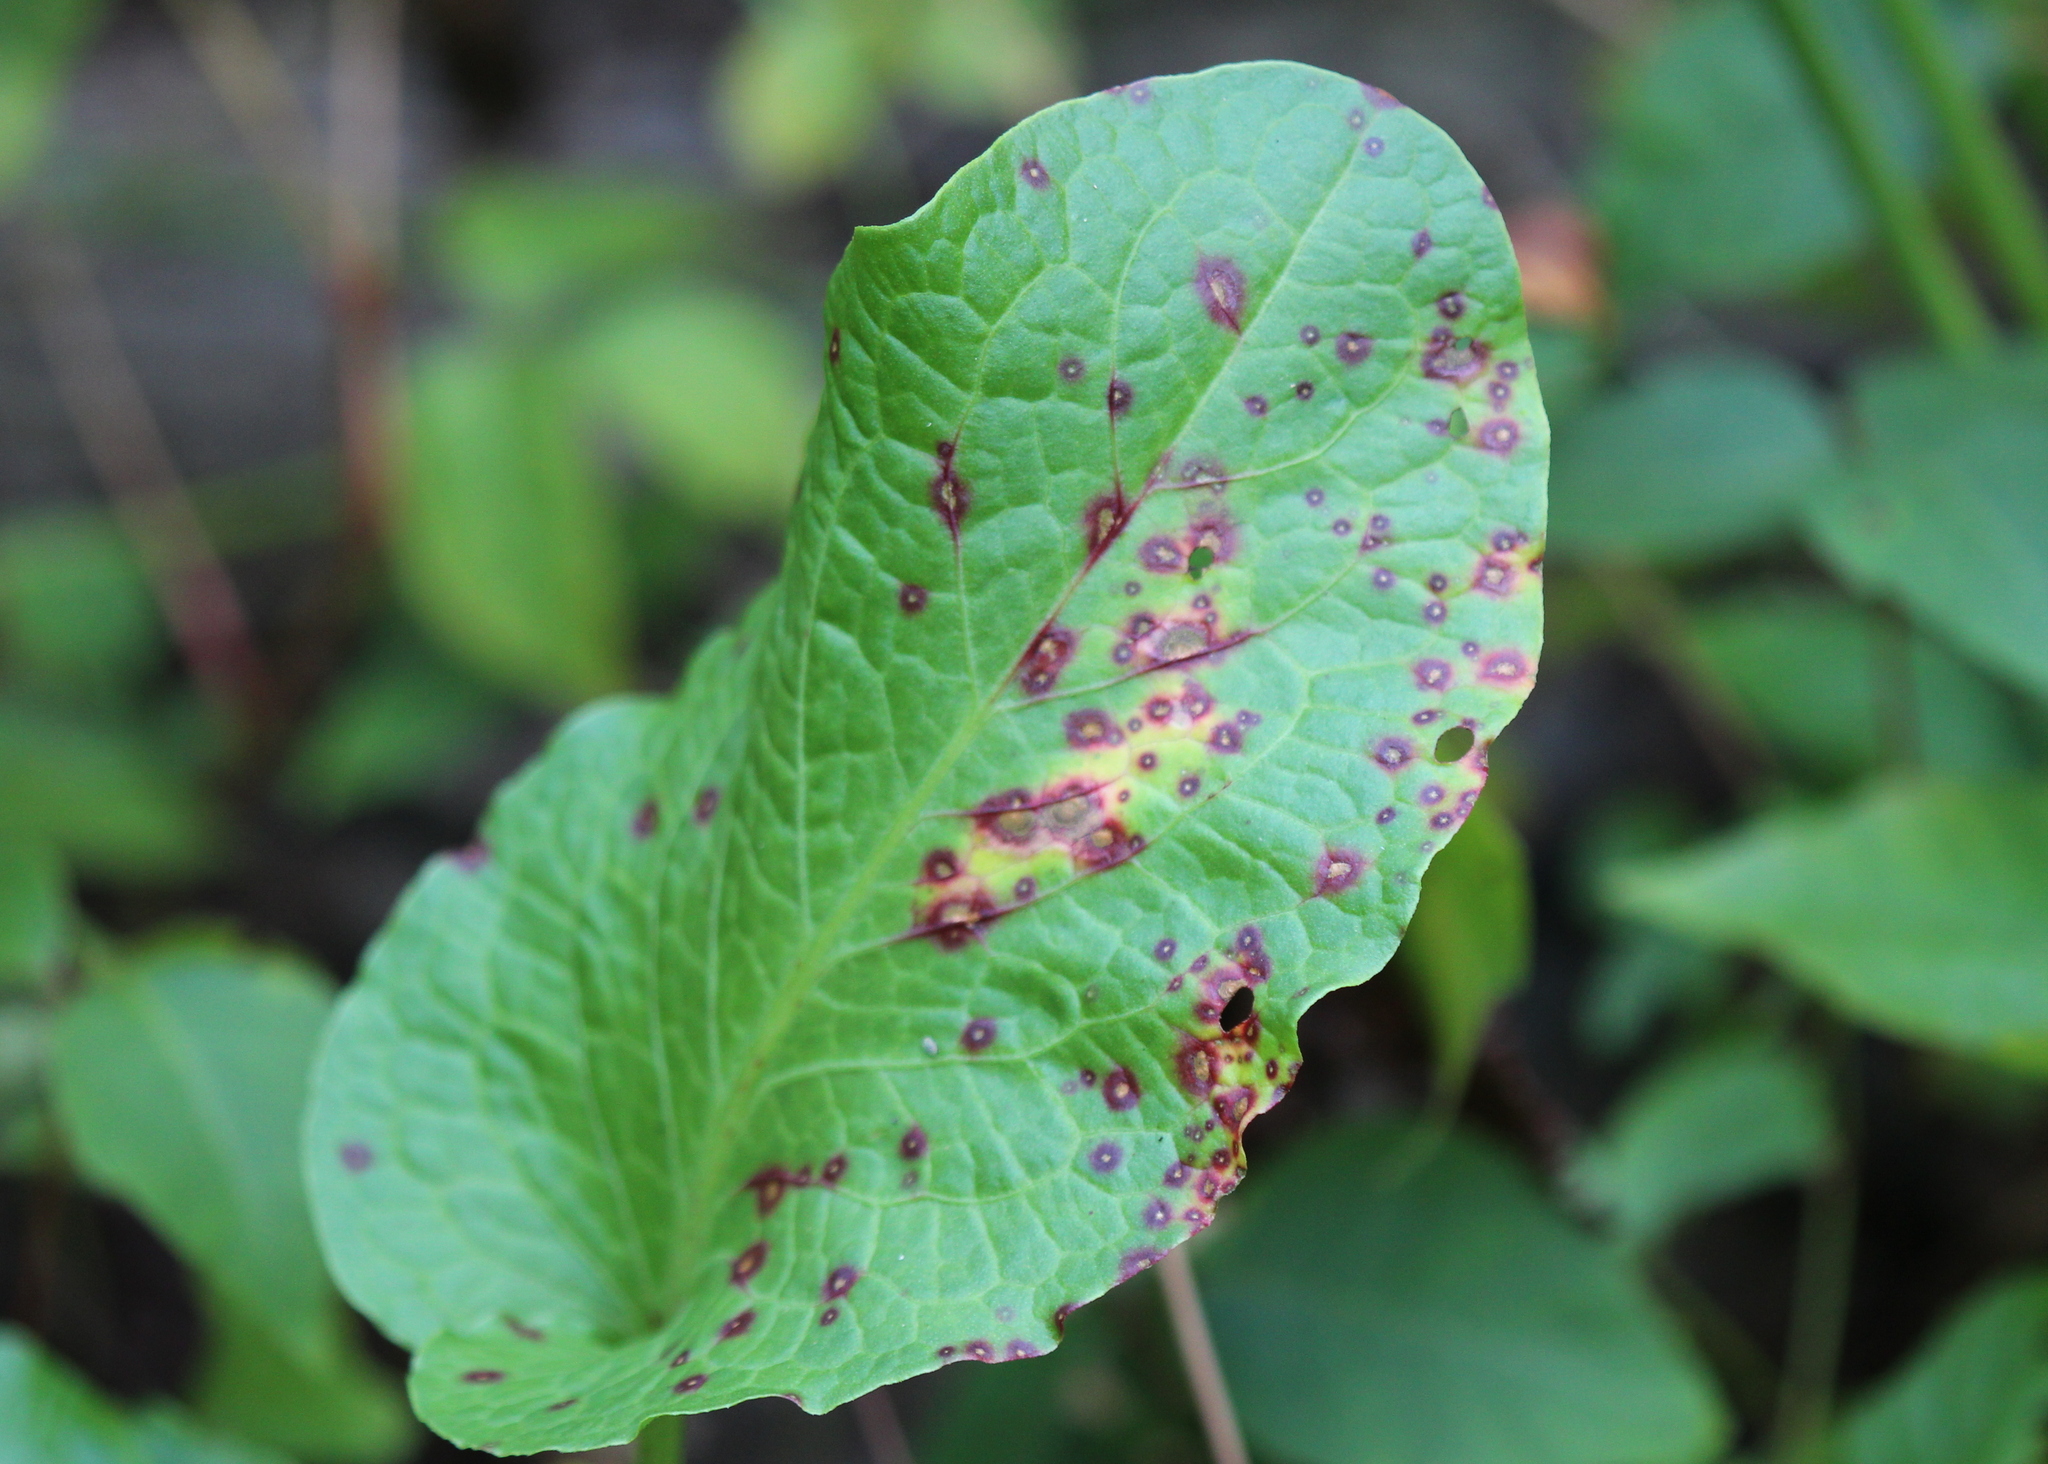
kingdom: Plantae
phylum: Tracheophyta
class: Magnoliopsida
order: Caryophyllales
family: Polygonaceae
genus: Rumex
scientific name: Rumex obtusifolius
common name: Bitter dock
